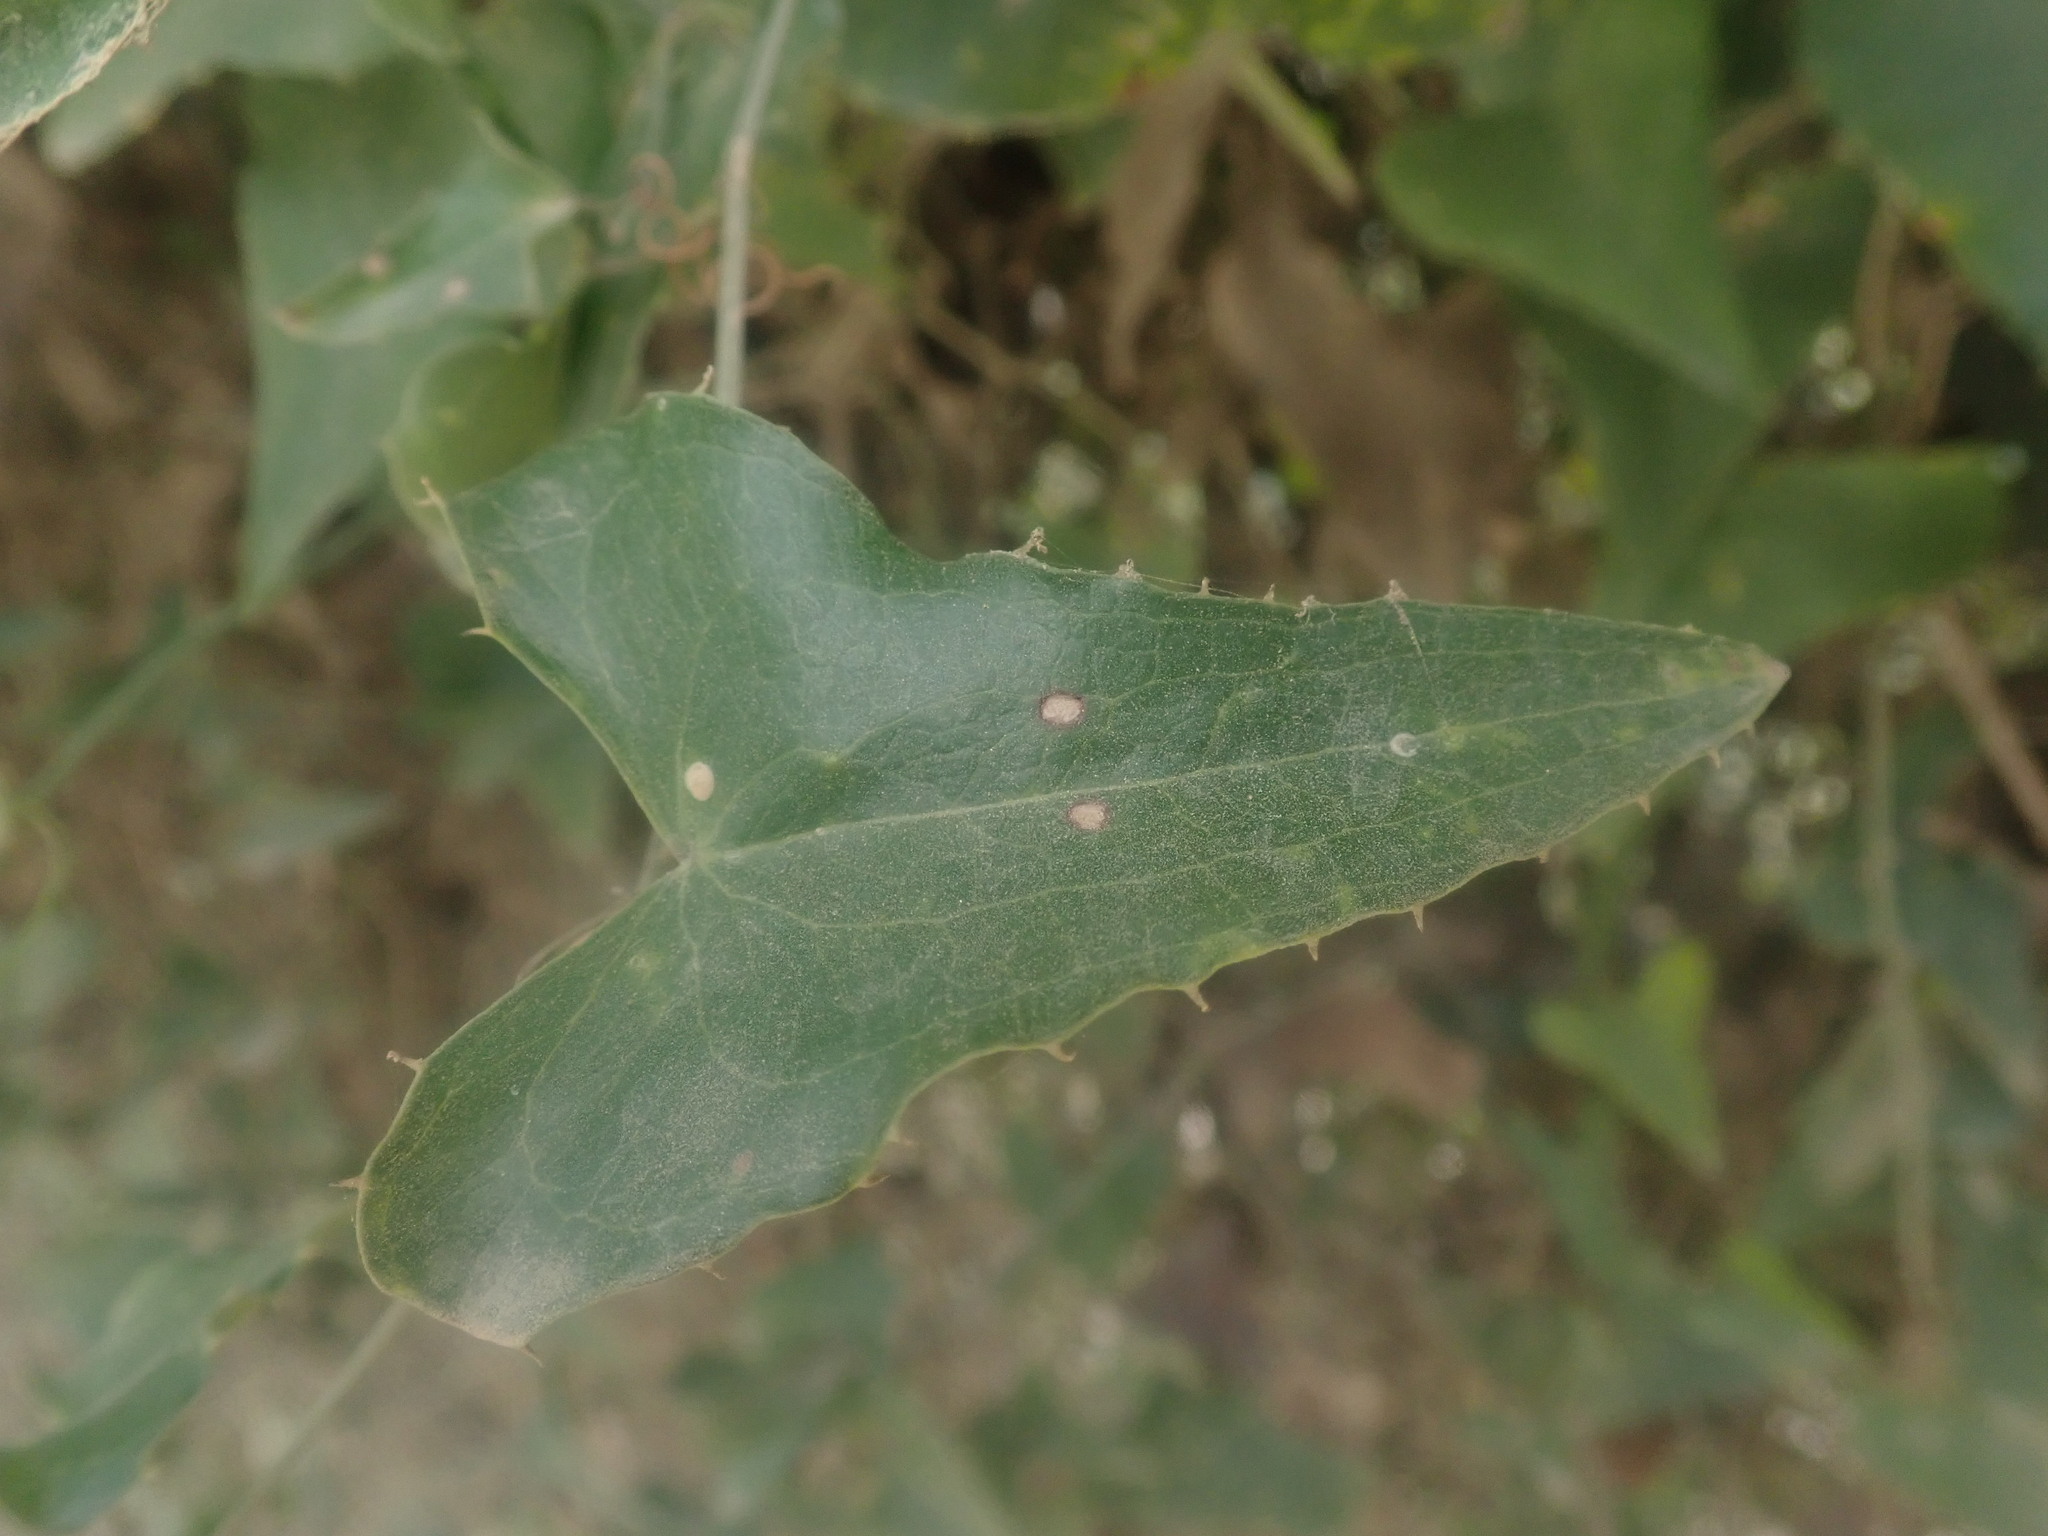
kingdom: Plantae
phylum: Tracheophyta
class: Liliopsida
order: Liliales
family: Smilacaceae
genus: Smilax
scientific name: Smilax aspera
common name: Common smilax
